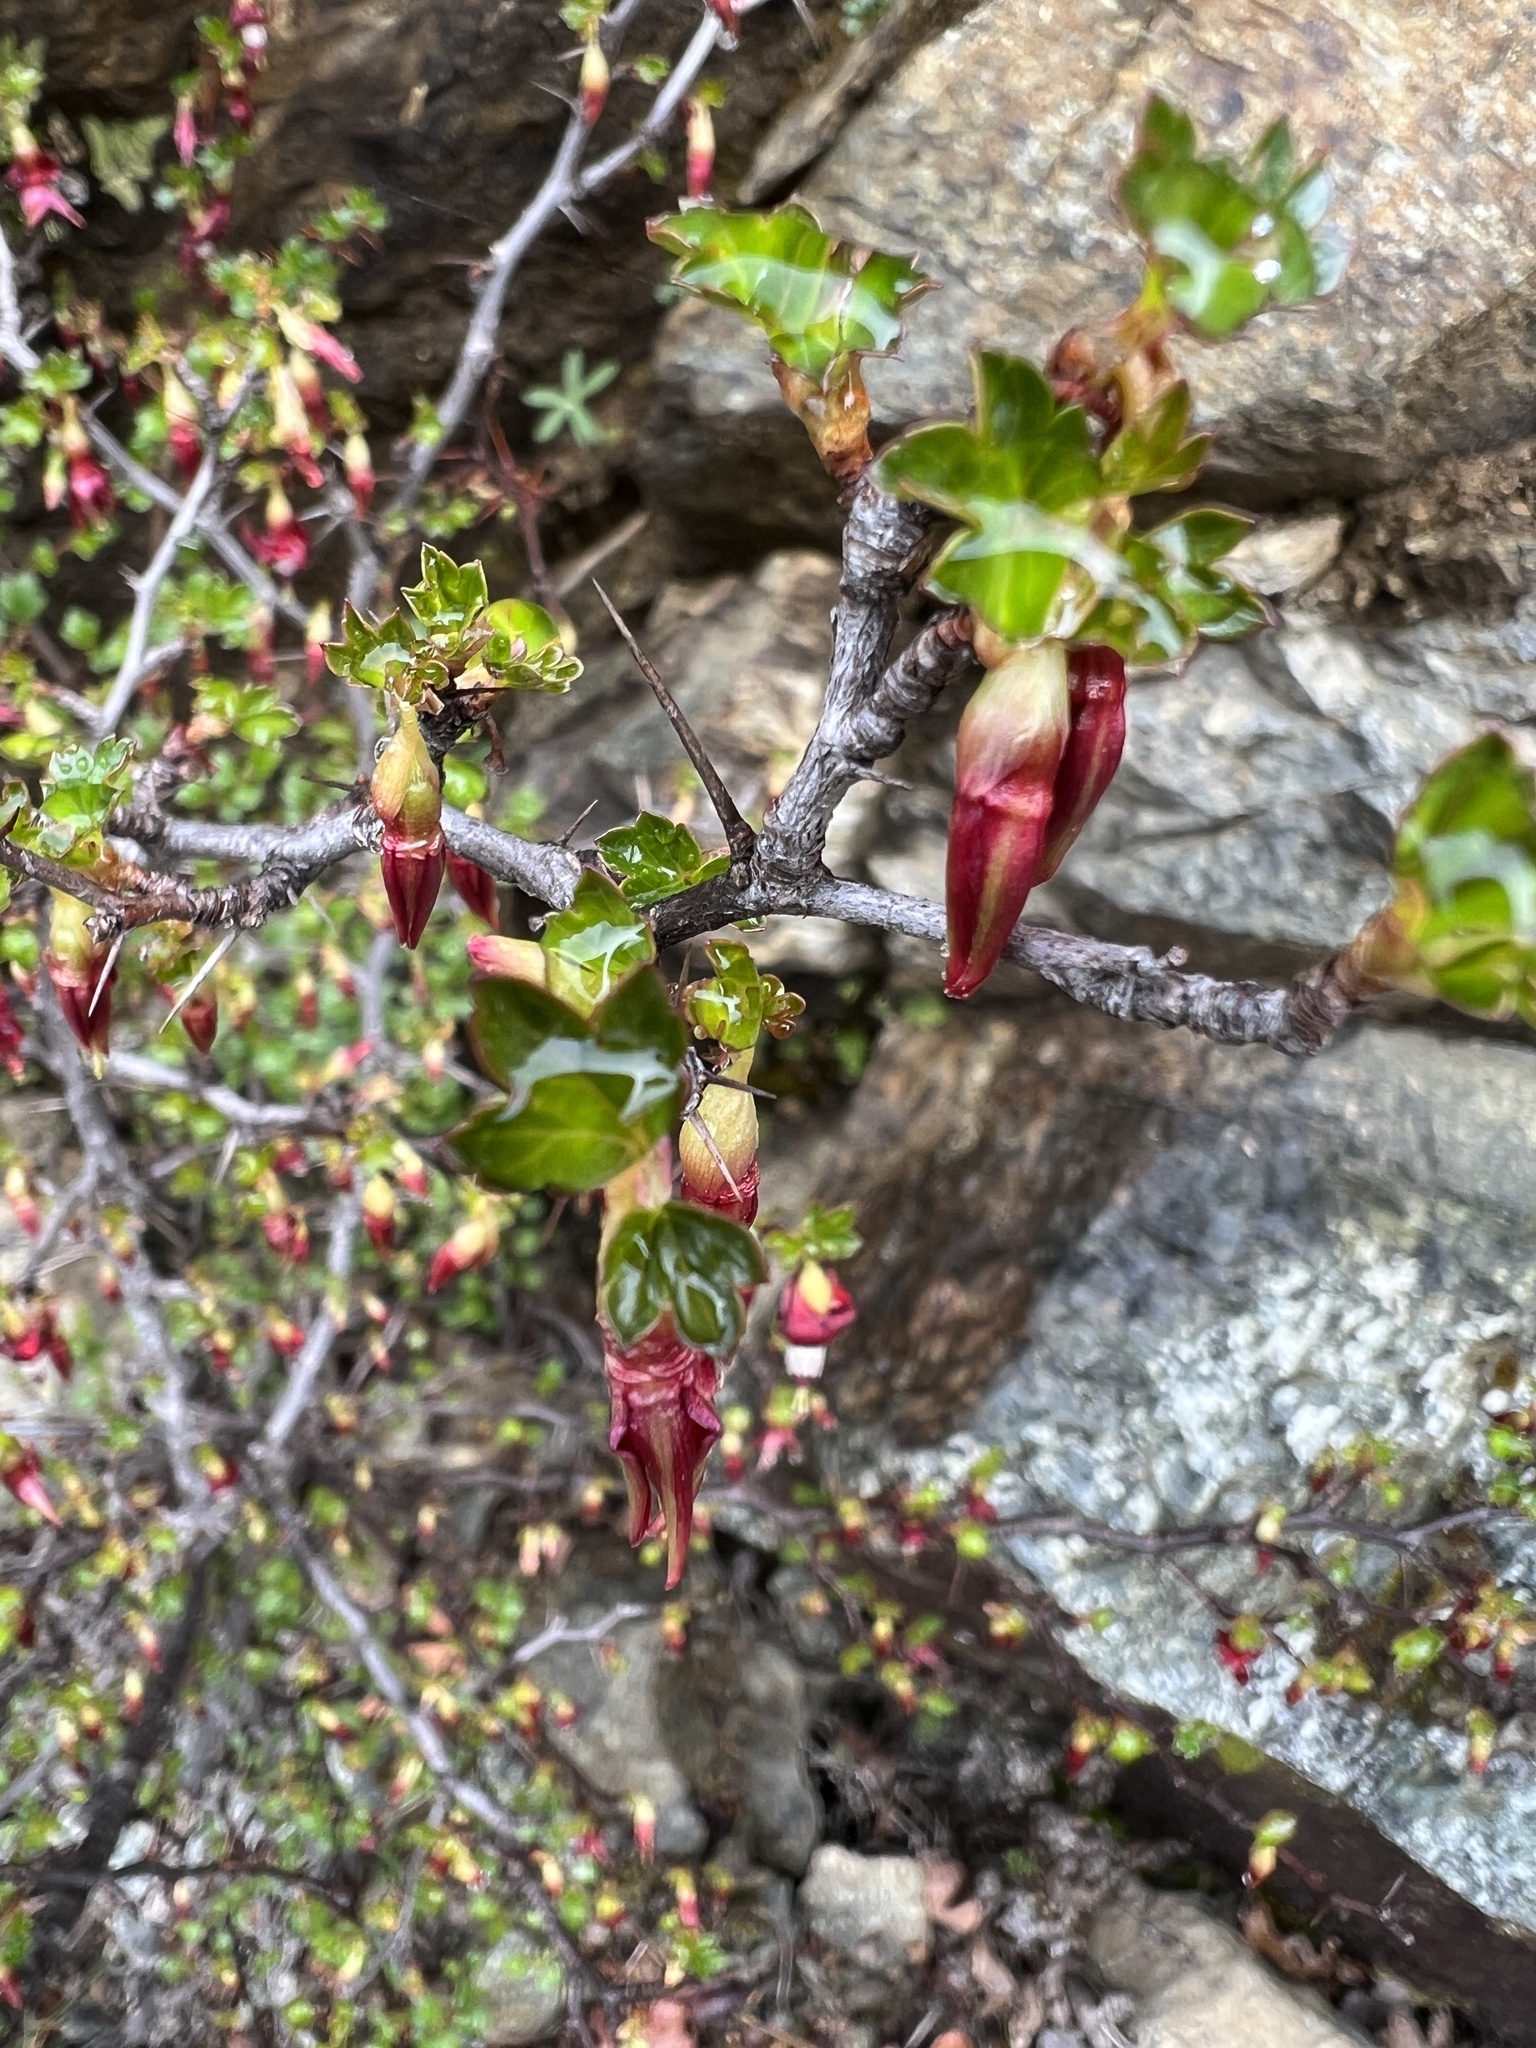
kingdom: Plantae
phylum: Tracheophyta
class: Magnoliopsida
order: Saxifragales
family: Grossulariaceae
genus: Ribes
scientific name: Ribes roezlii
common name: Sierra gooseberry
